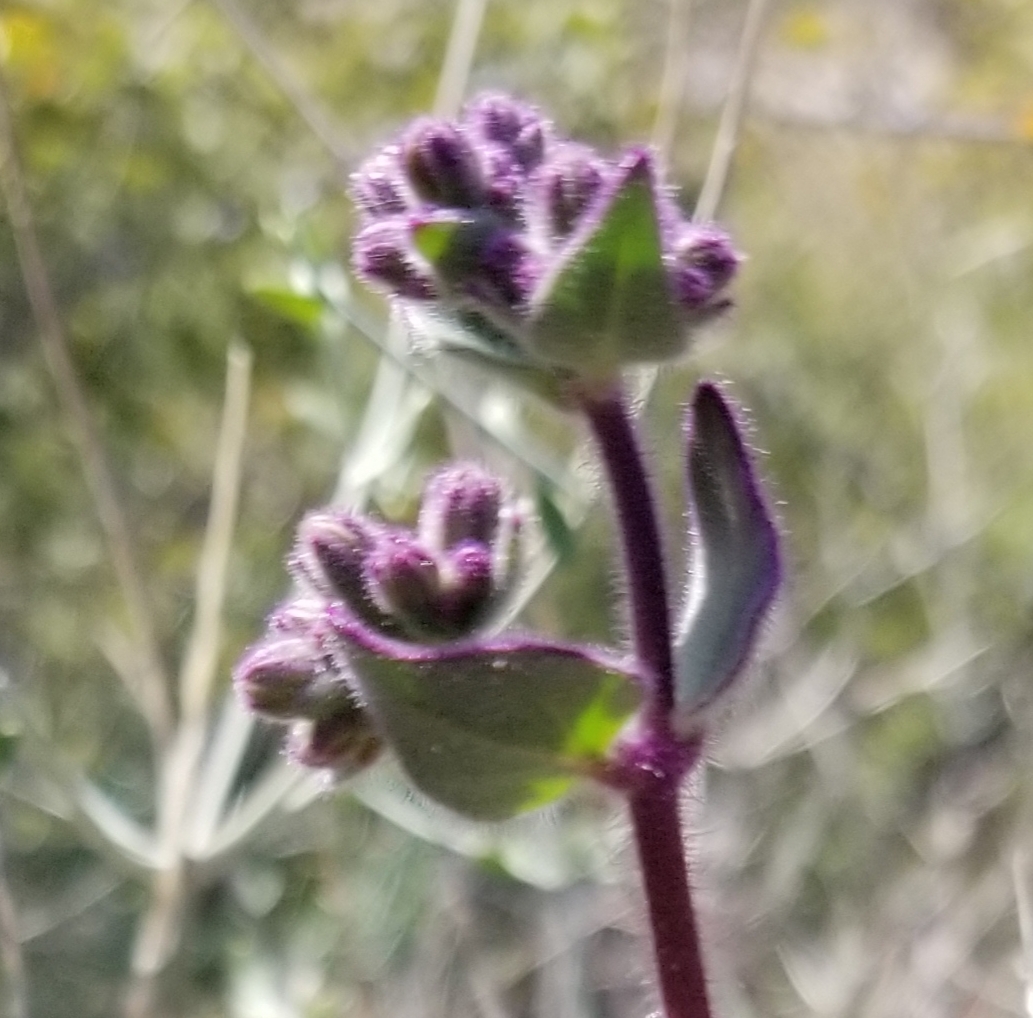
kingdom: Plantae
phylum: Tracheophyta
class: Magnoliopsida
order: Caryophyllales
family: Nyctaginaceae
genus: Mirabilis
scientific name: Mirabilis laevis
